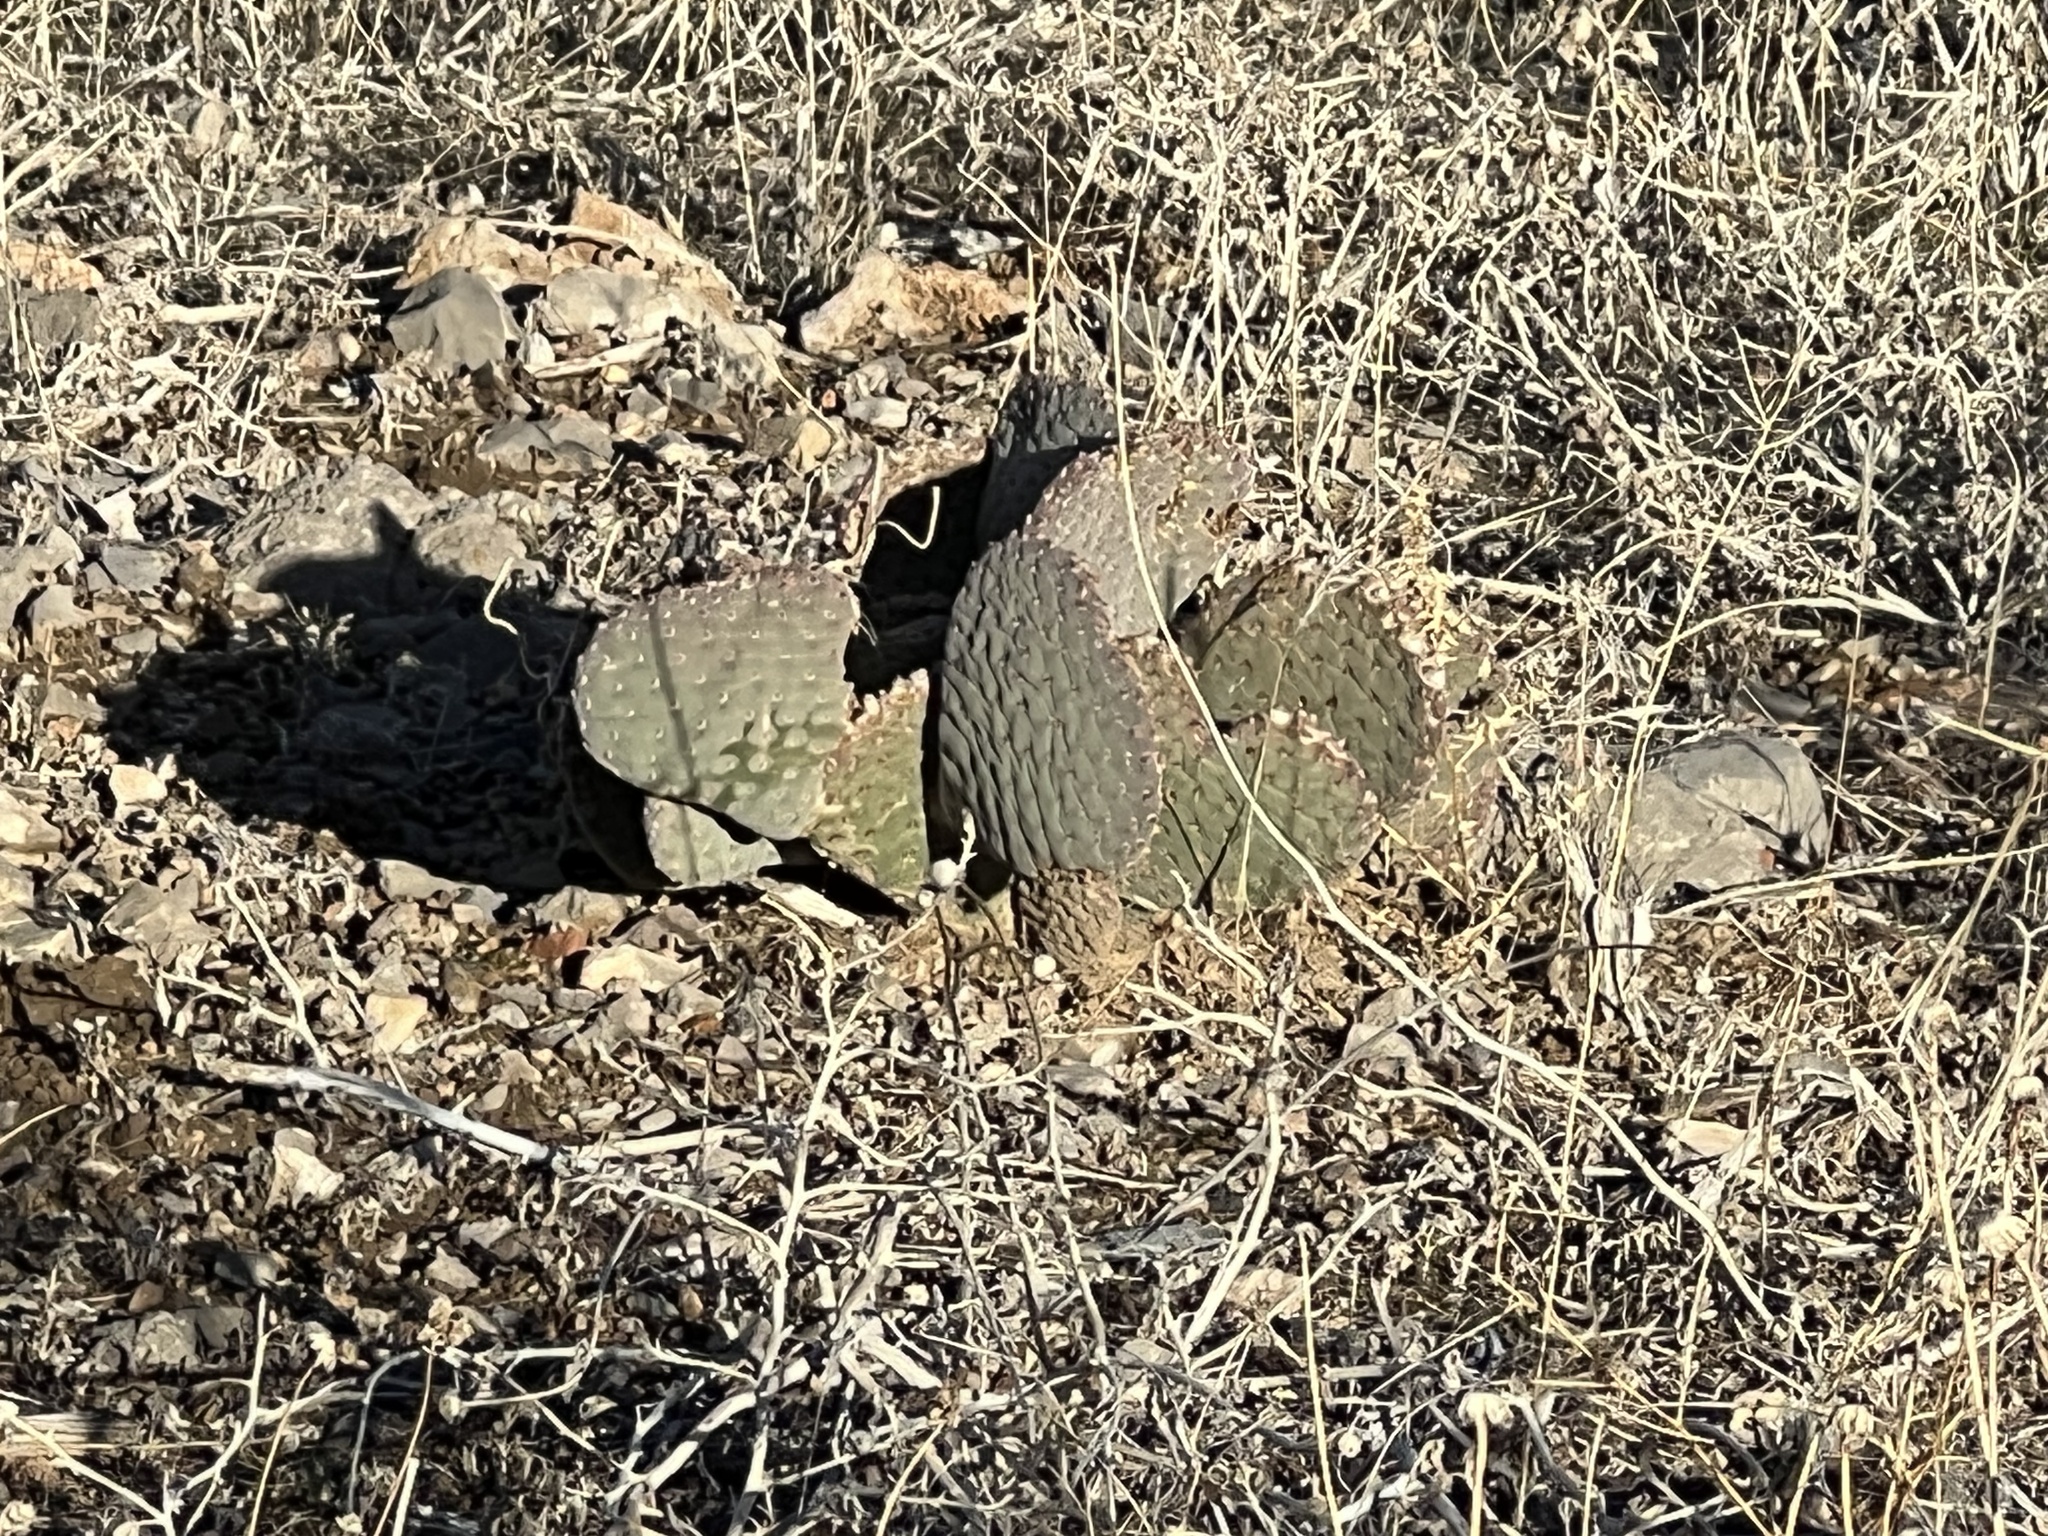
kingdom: Plantae
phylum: Tracheophyta
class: Magnoliopsida
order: Caryophyllales
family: Cactaceae
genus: Opuntia
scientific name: Opuntia basilaris
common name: Beavertail prickly-pear
